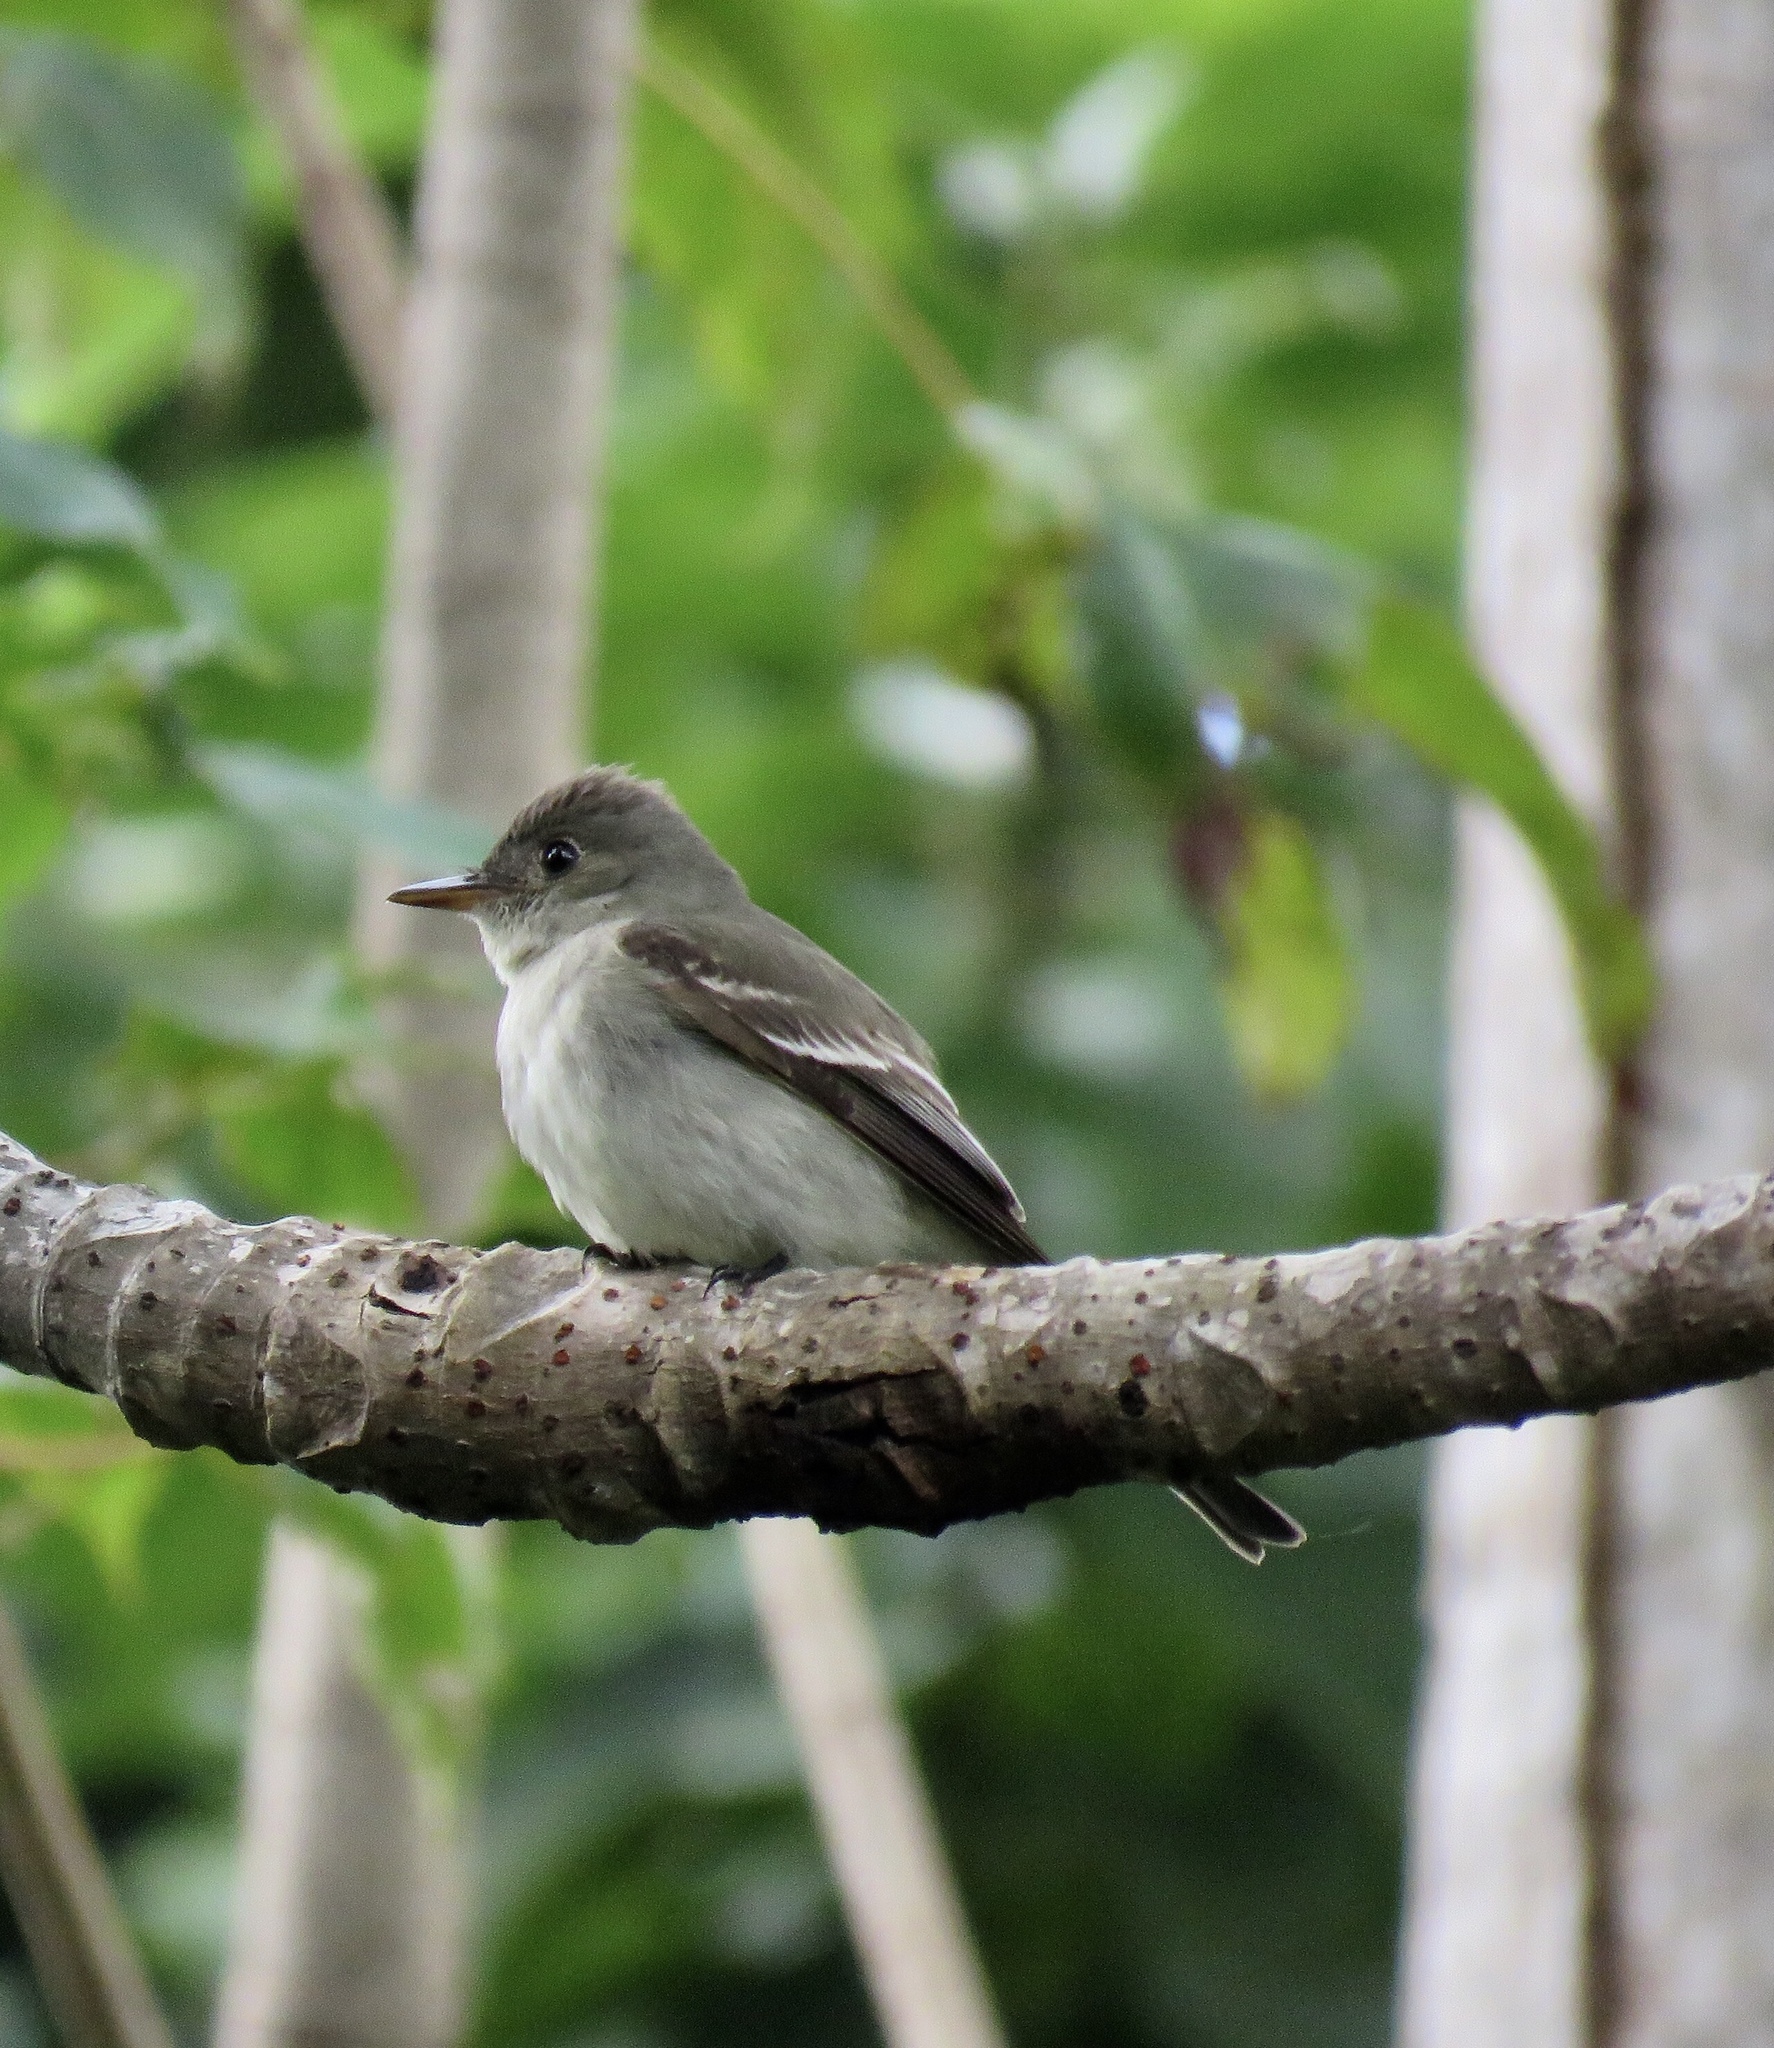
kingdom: Animalia
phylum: Chordata
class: Aves
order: Passeriformes
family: Tyrannidae
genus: Contopus
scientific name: Contopus virens
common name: Eastern wood-pewee
